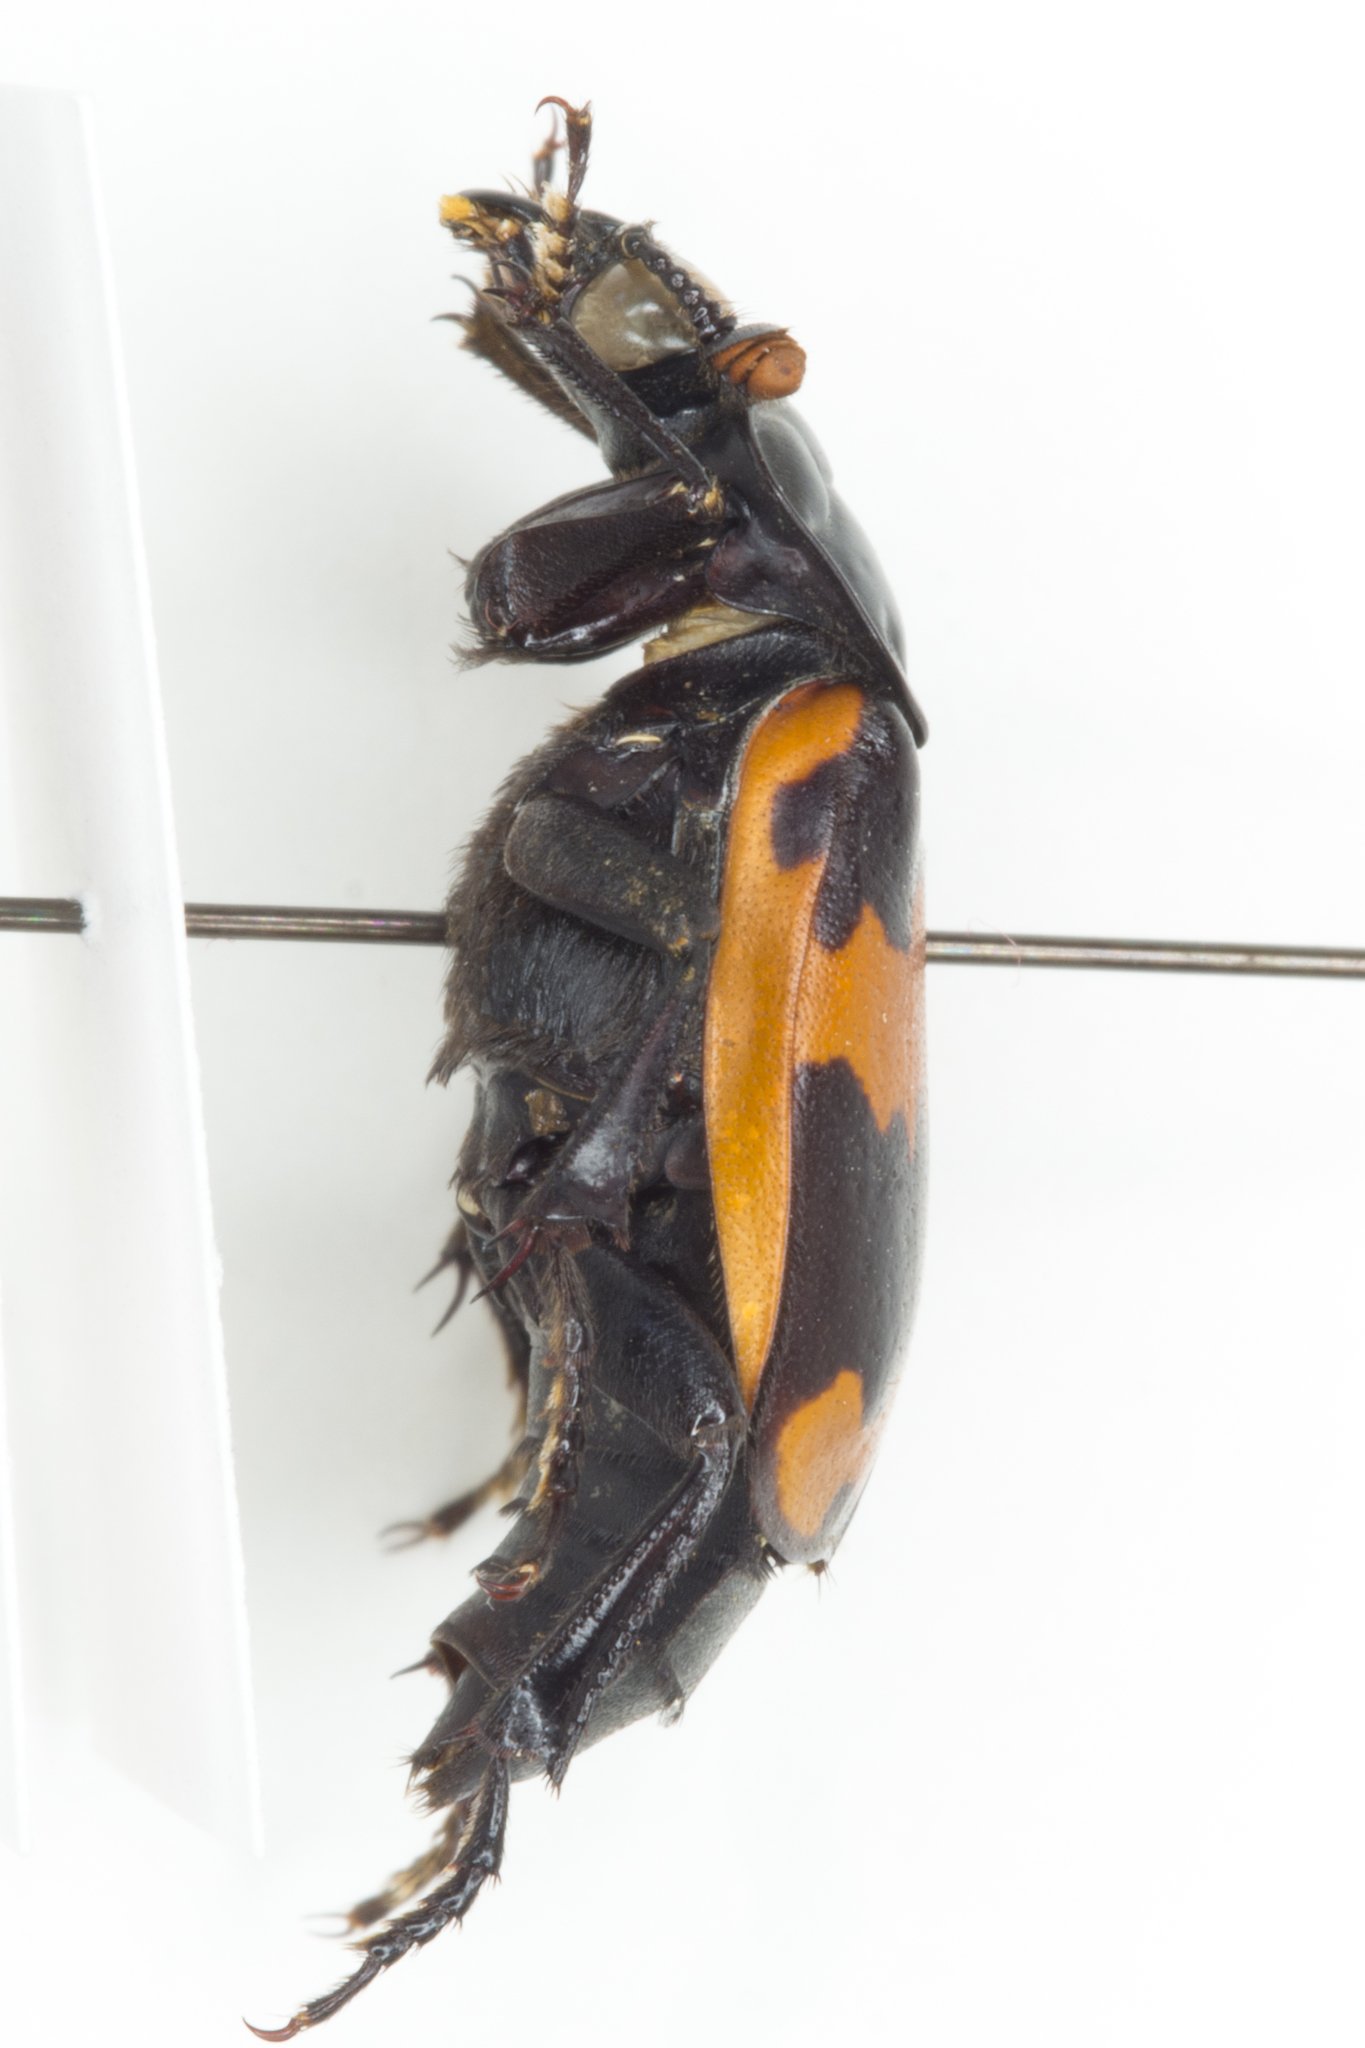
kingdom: Animalia
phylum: Arthropoda
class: Insecta
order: Coleoptera
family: Staphylinidae
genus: Nicrophorus
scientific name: Nicrophorus mexicanus
